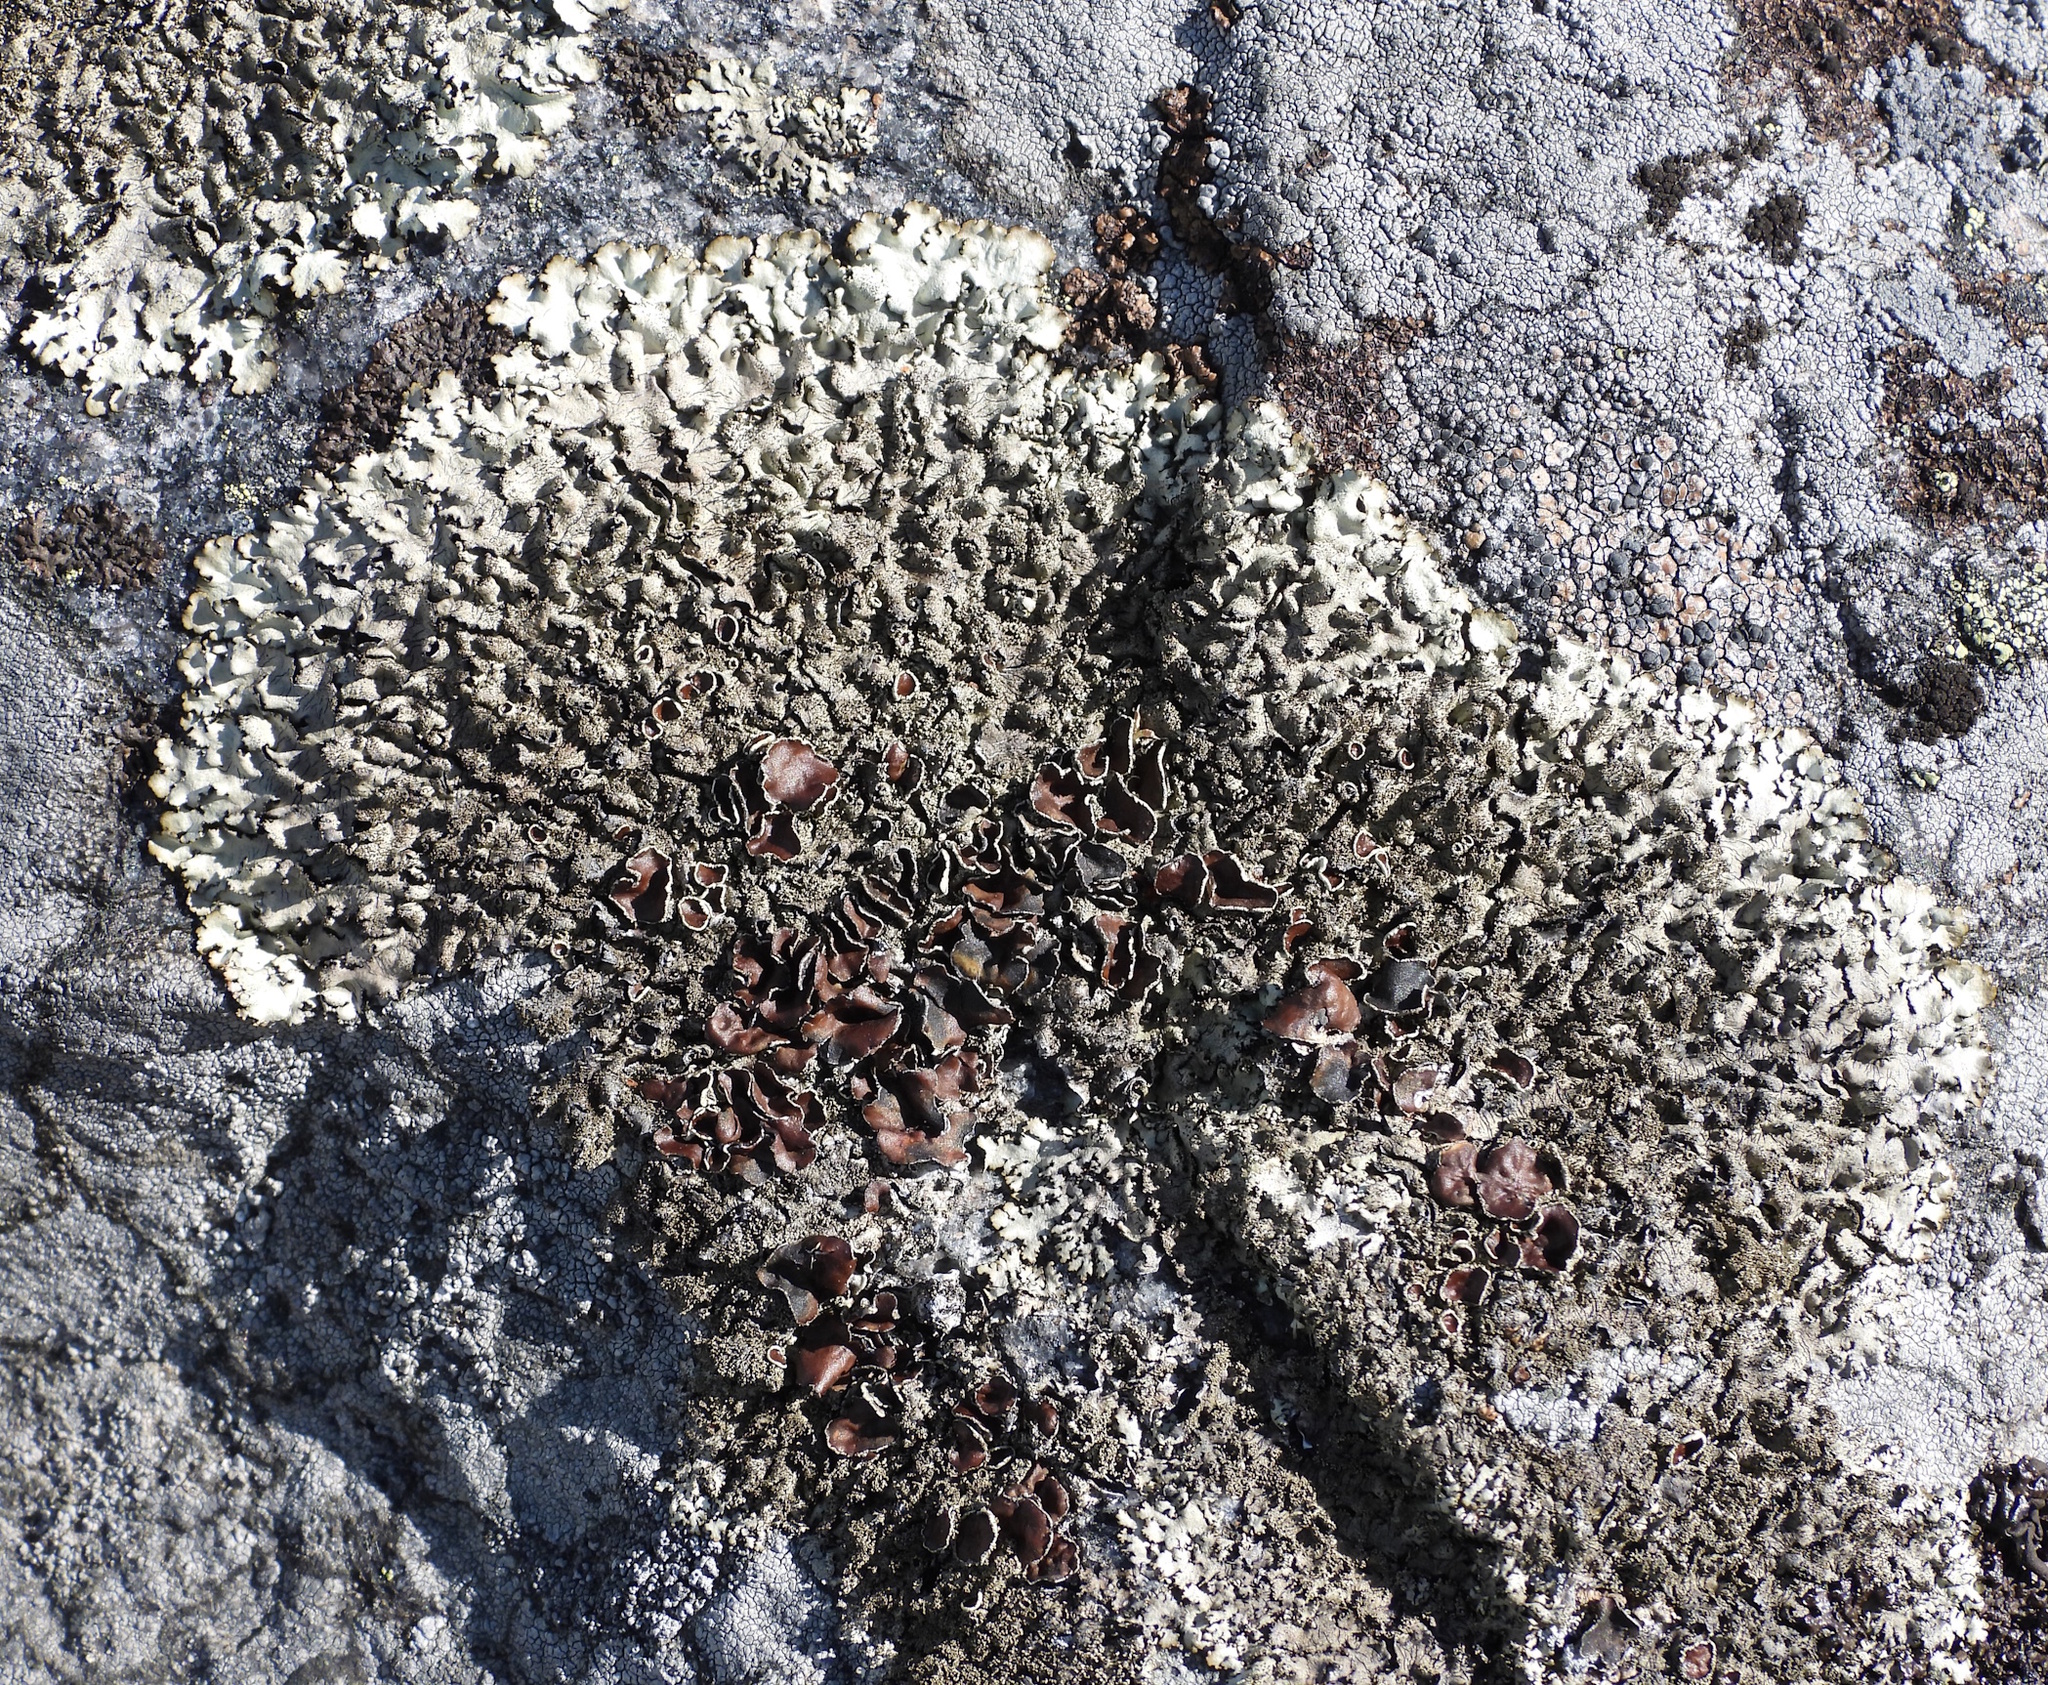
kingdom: Fungi
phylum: Ascomycota
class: Lecanoromycetes
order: Lecanorales
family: Parmeliaceae
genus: Xanthoparmelia
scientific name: Xanthoparmelia conspersa
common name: Peppered rock shield
